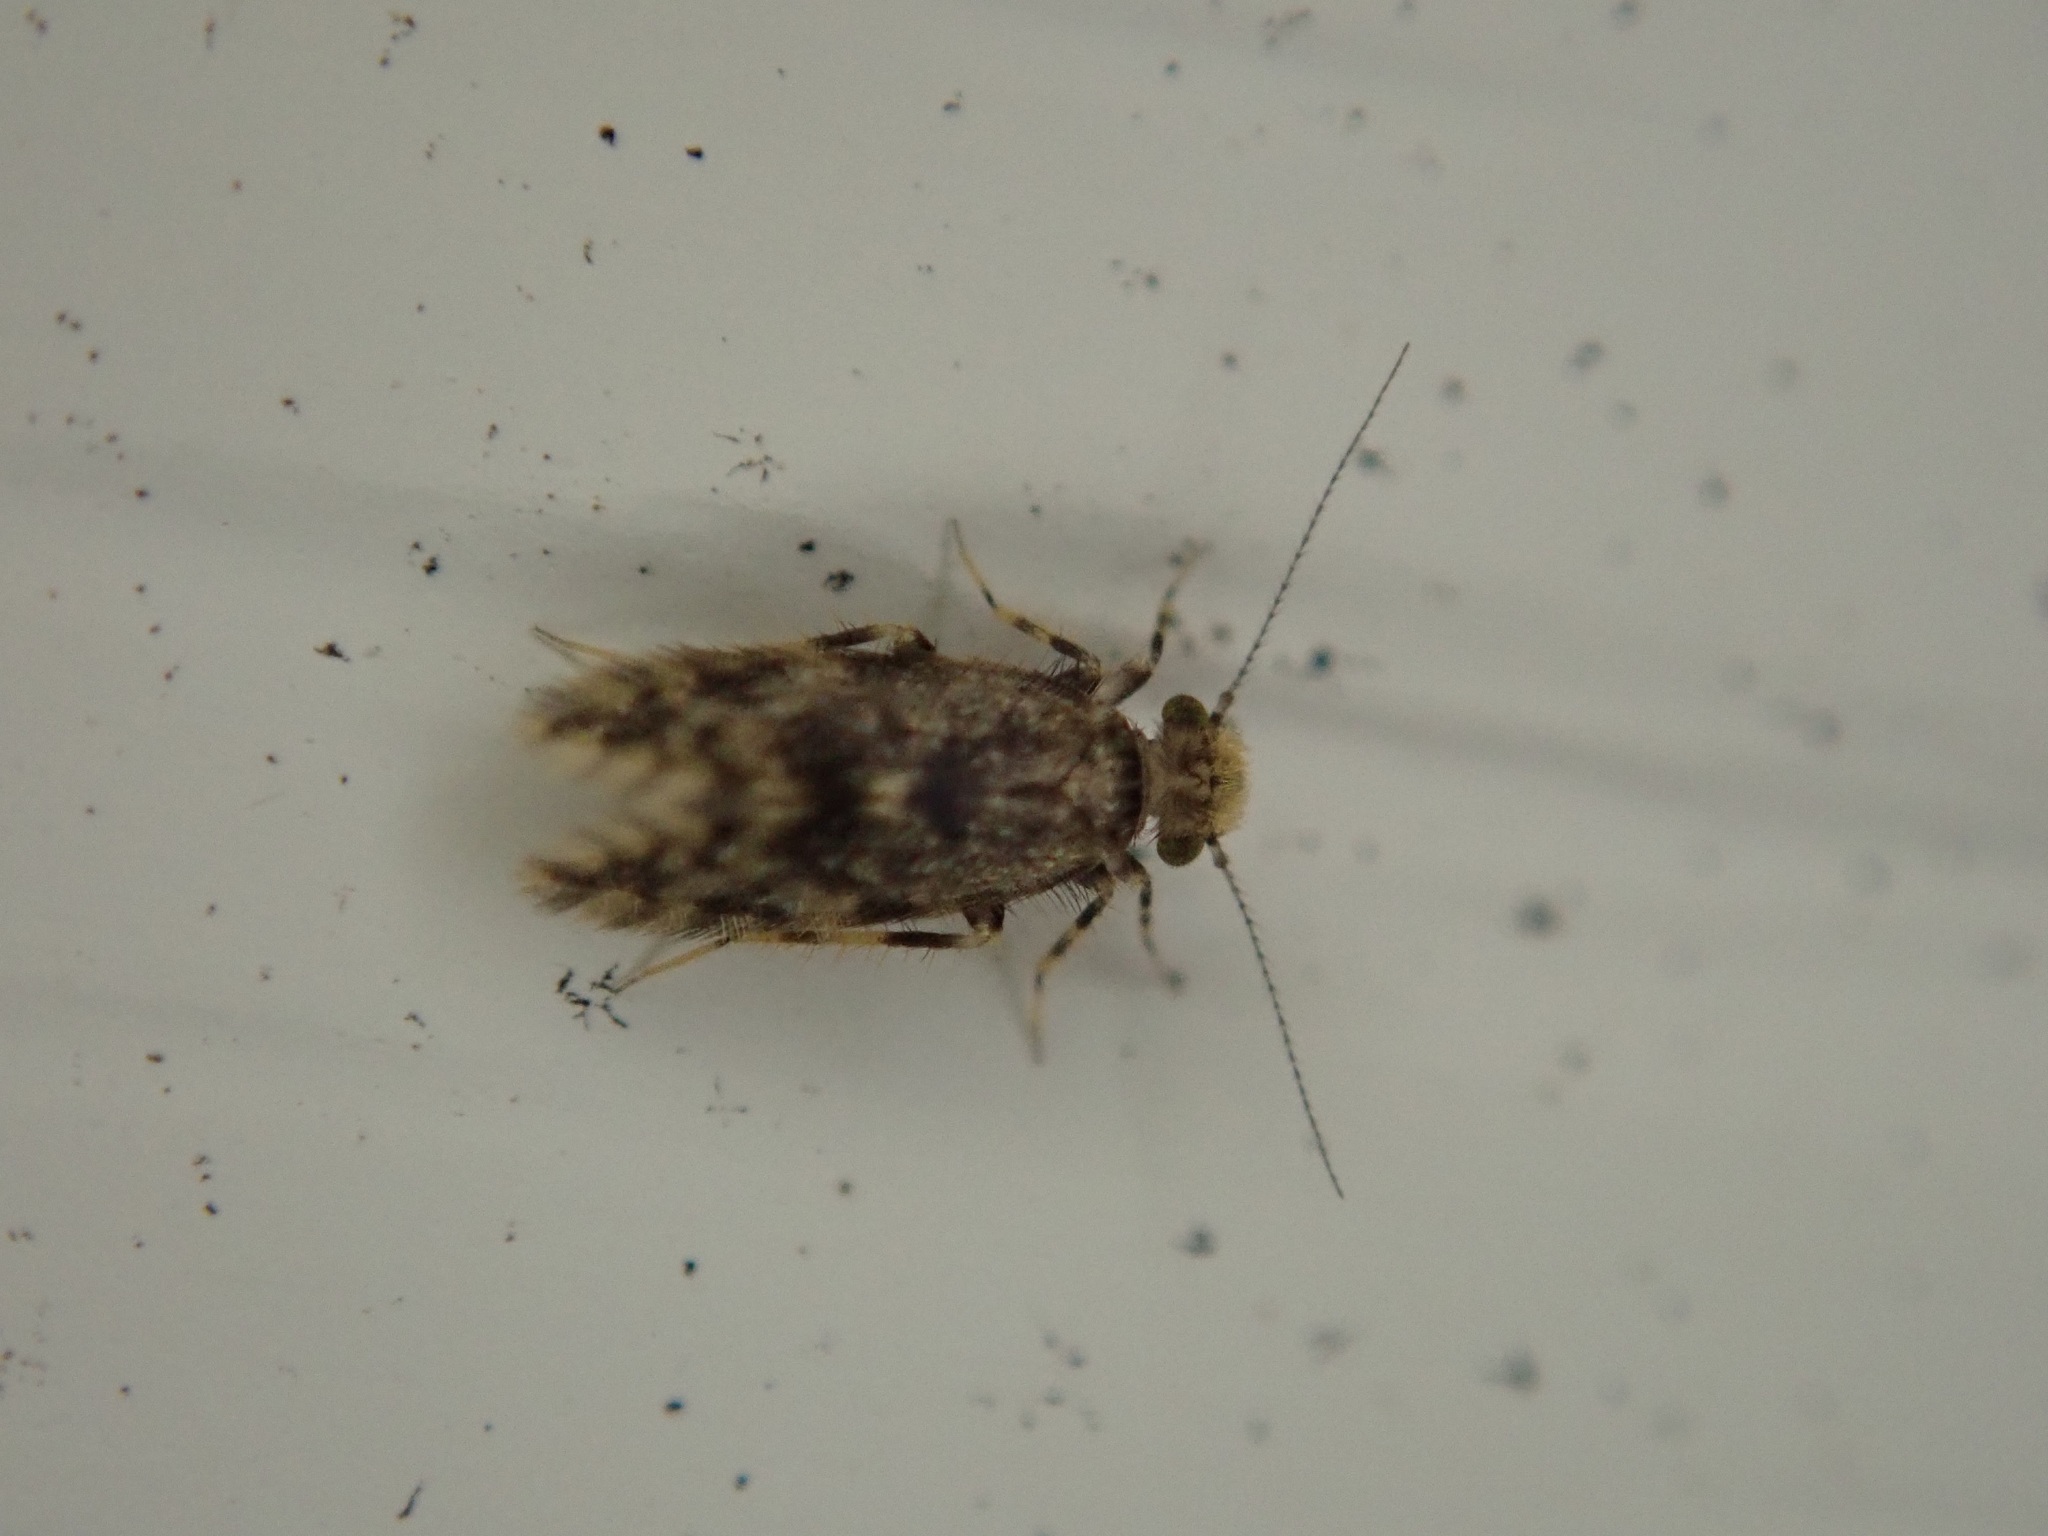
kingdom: Animalia
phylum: Arthropoda
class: Insecta
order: Psocodea
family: Lepidopsocidae
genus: Echmepteryx
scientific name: Echmepteryx hageni
